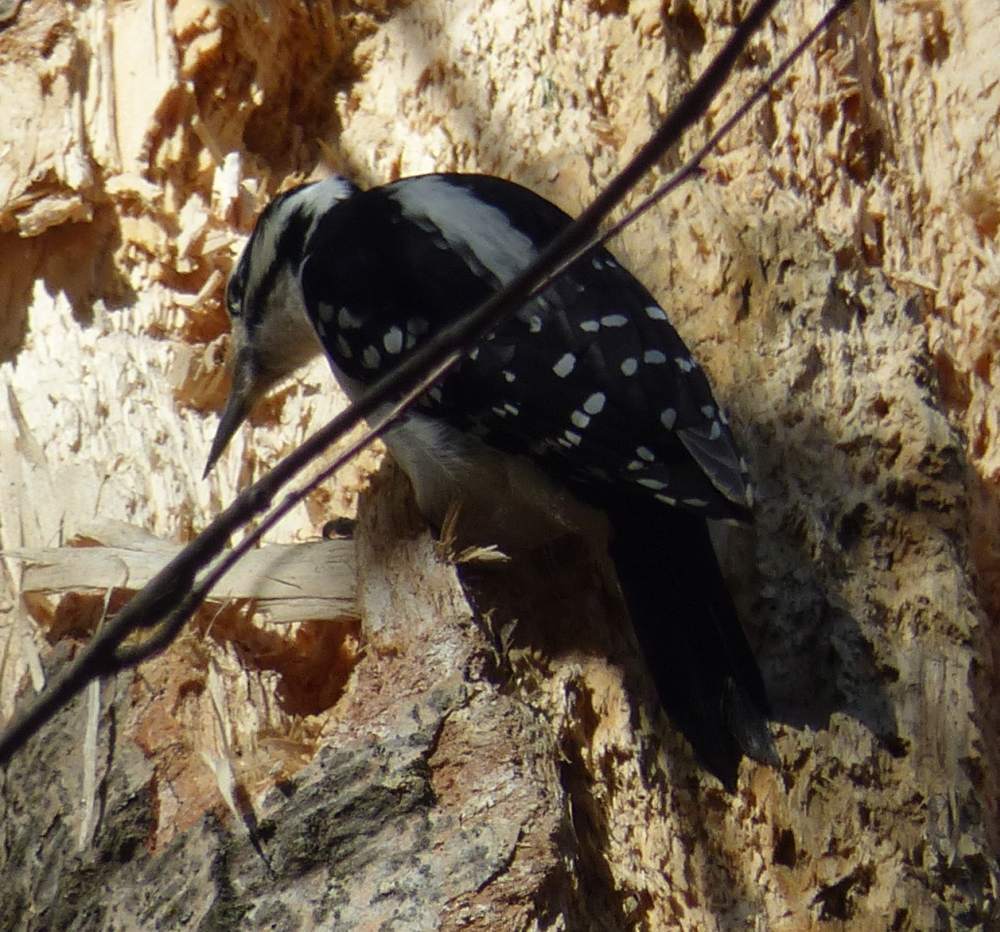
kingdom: Animalia
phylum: Chordata
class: Aves
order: Piciformes
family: Picidae
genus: Leuconotopicus
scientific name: Leuconotopicus villosus
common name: Hairy woodpecker
